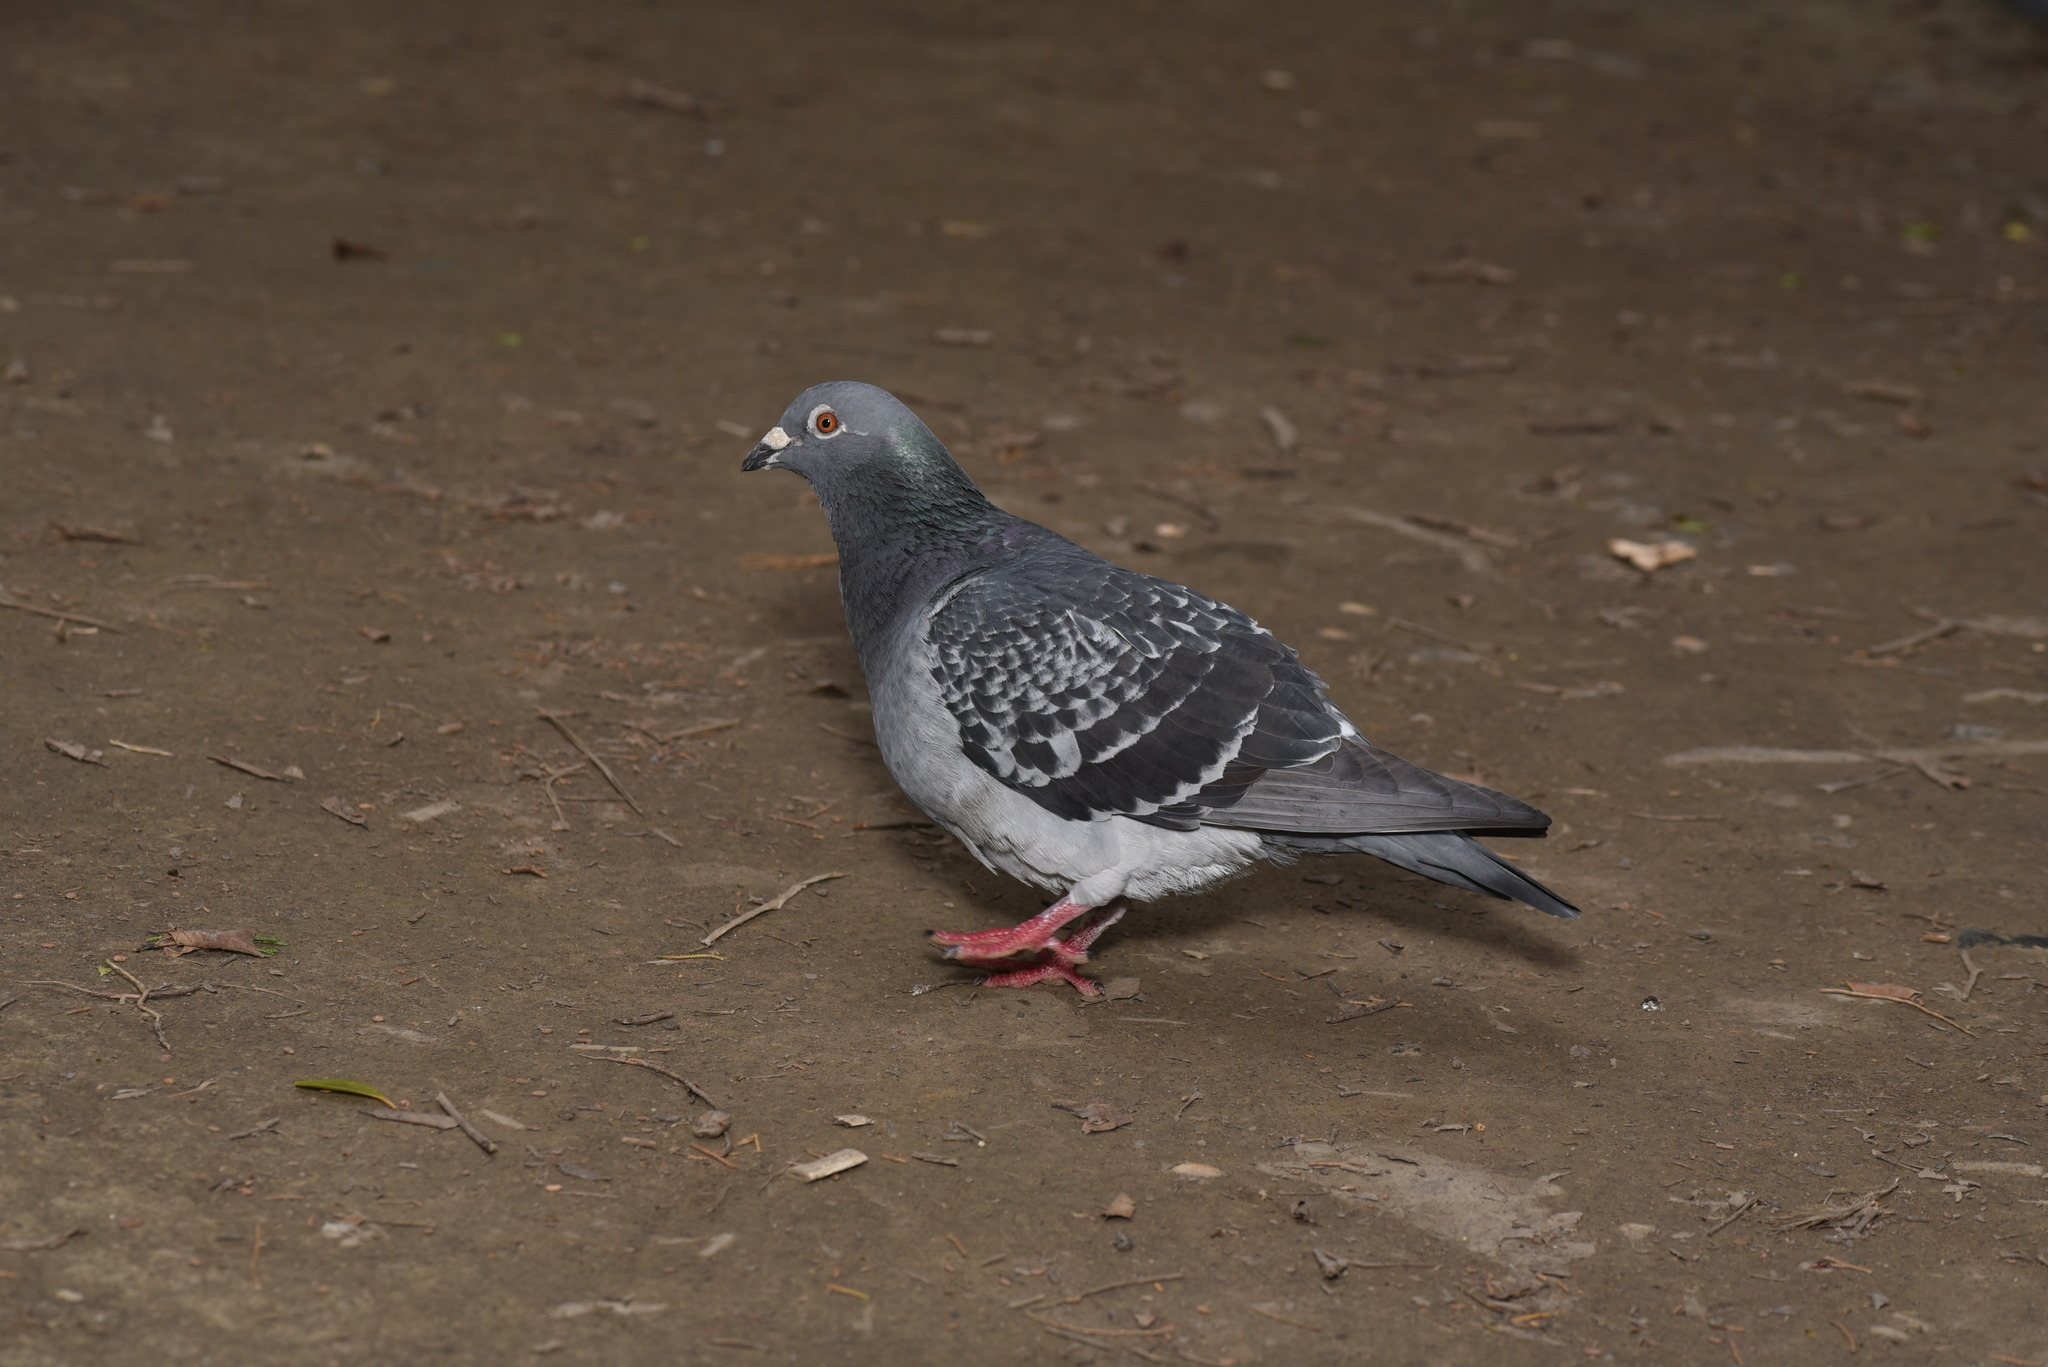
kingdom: Animalia
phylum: Chordata
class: Aves
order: Columbiformes
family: Columbidae
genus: Columba
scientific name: Columba livia
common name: Rock pigeon
